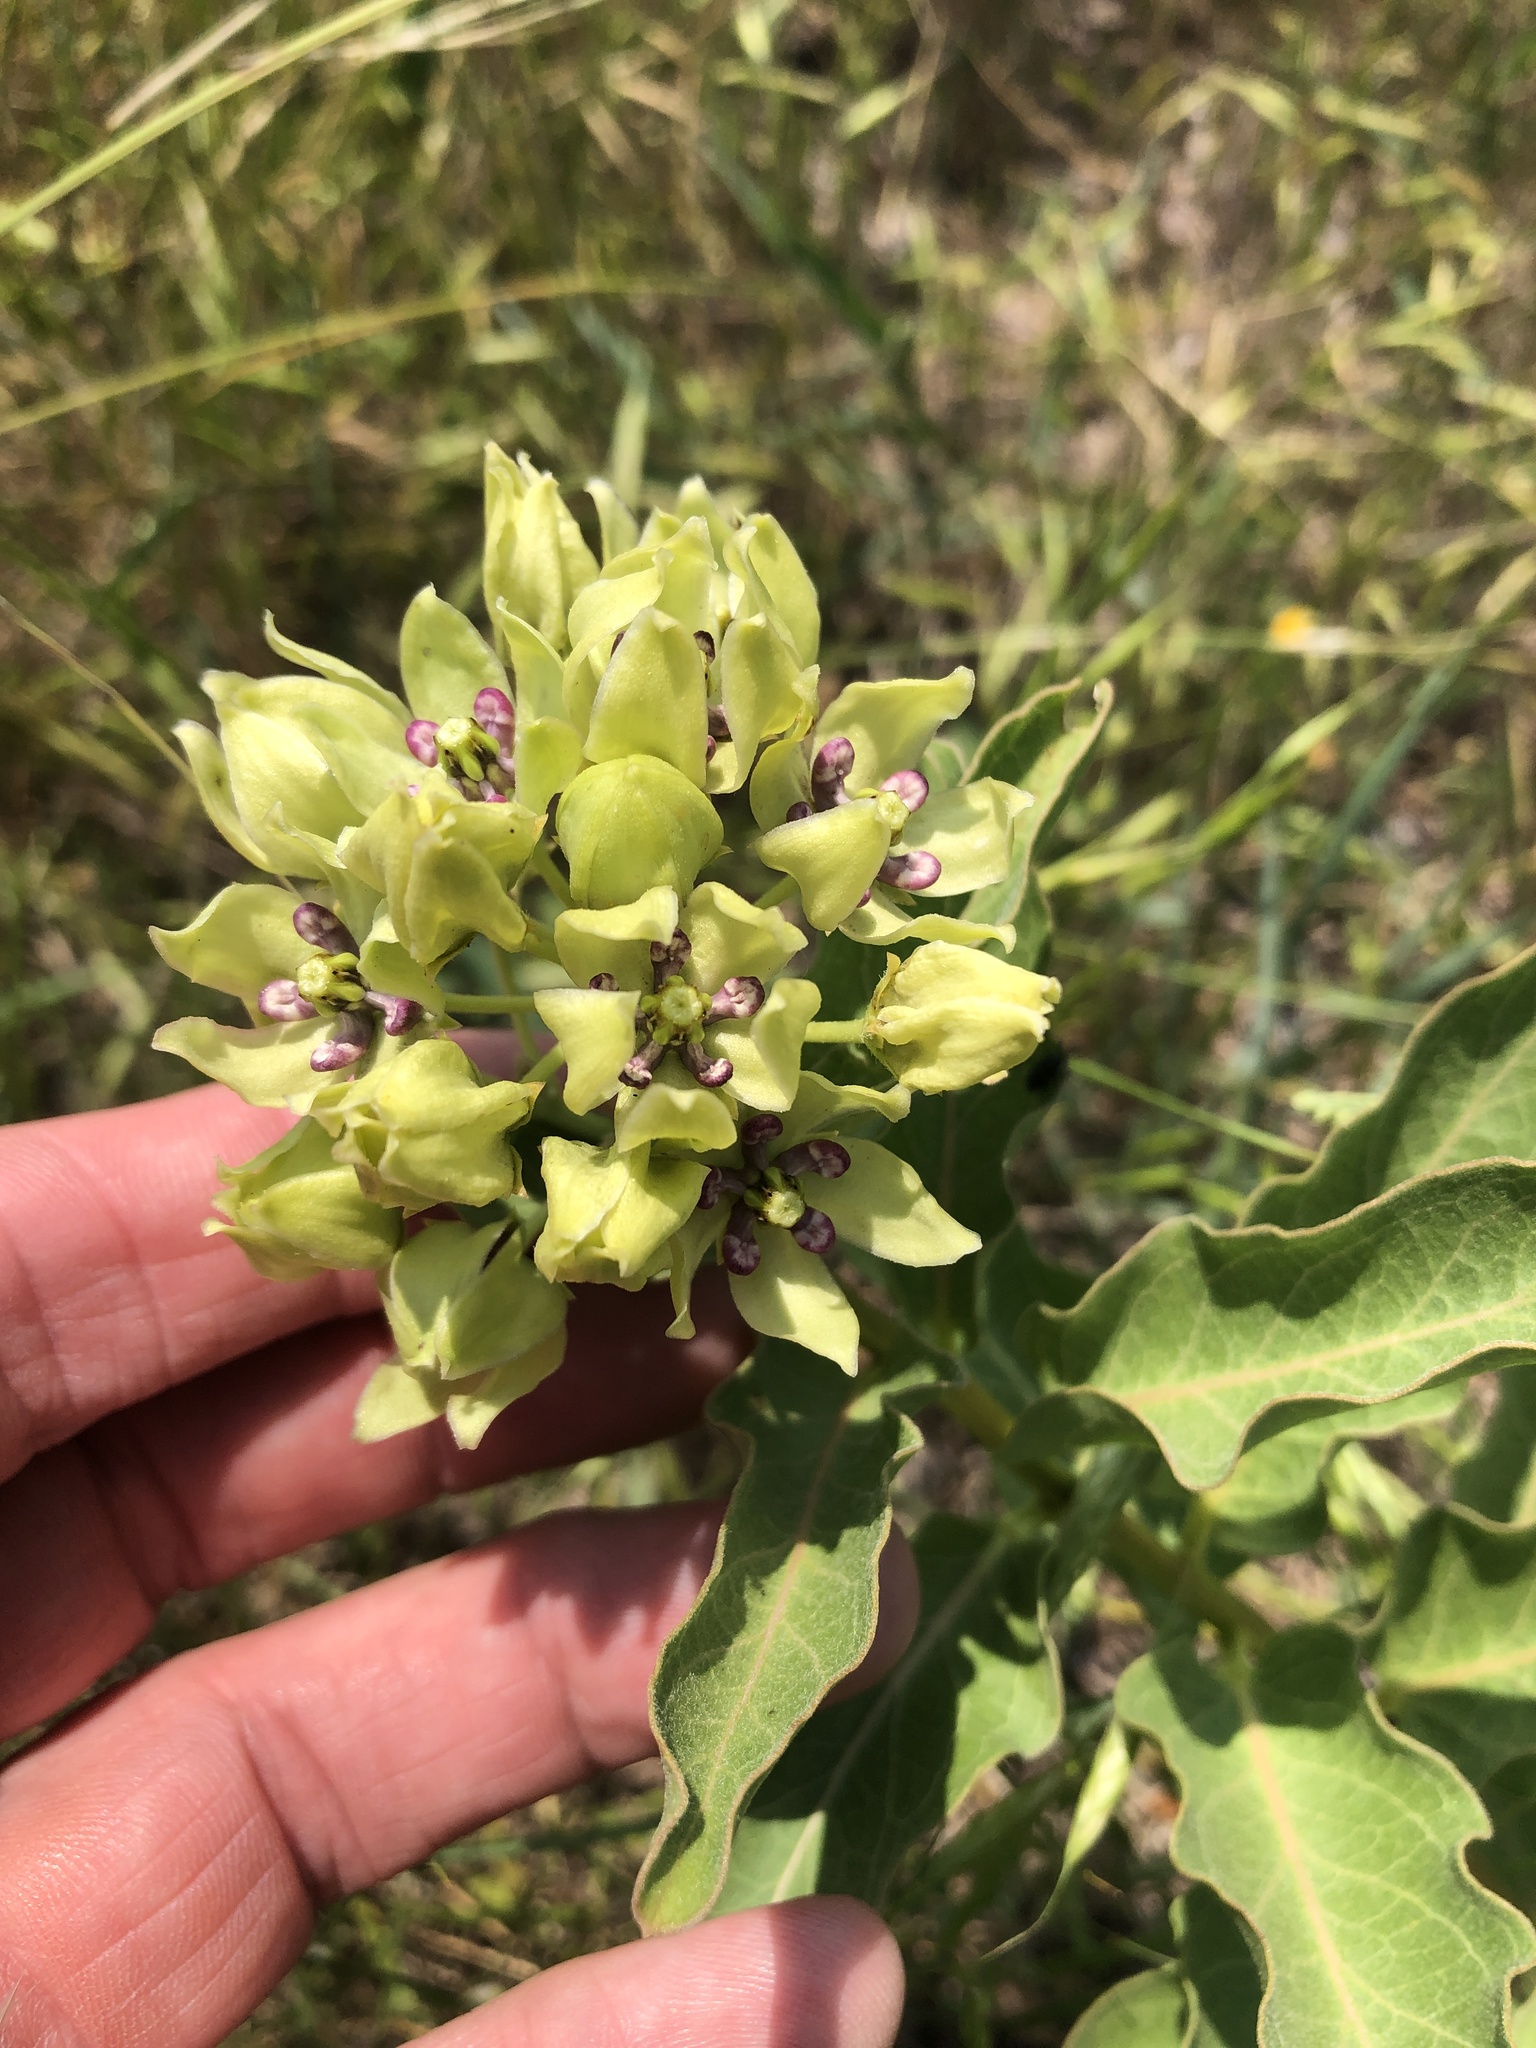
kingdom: Plantae
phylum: Tracheophyta
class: Magnoliopsida
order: Gentianales
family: Apocynaceae
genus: Asclepias
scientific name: Asclepias viridis
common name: Antelope-horns
